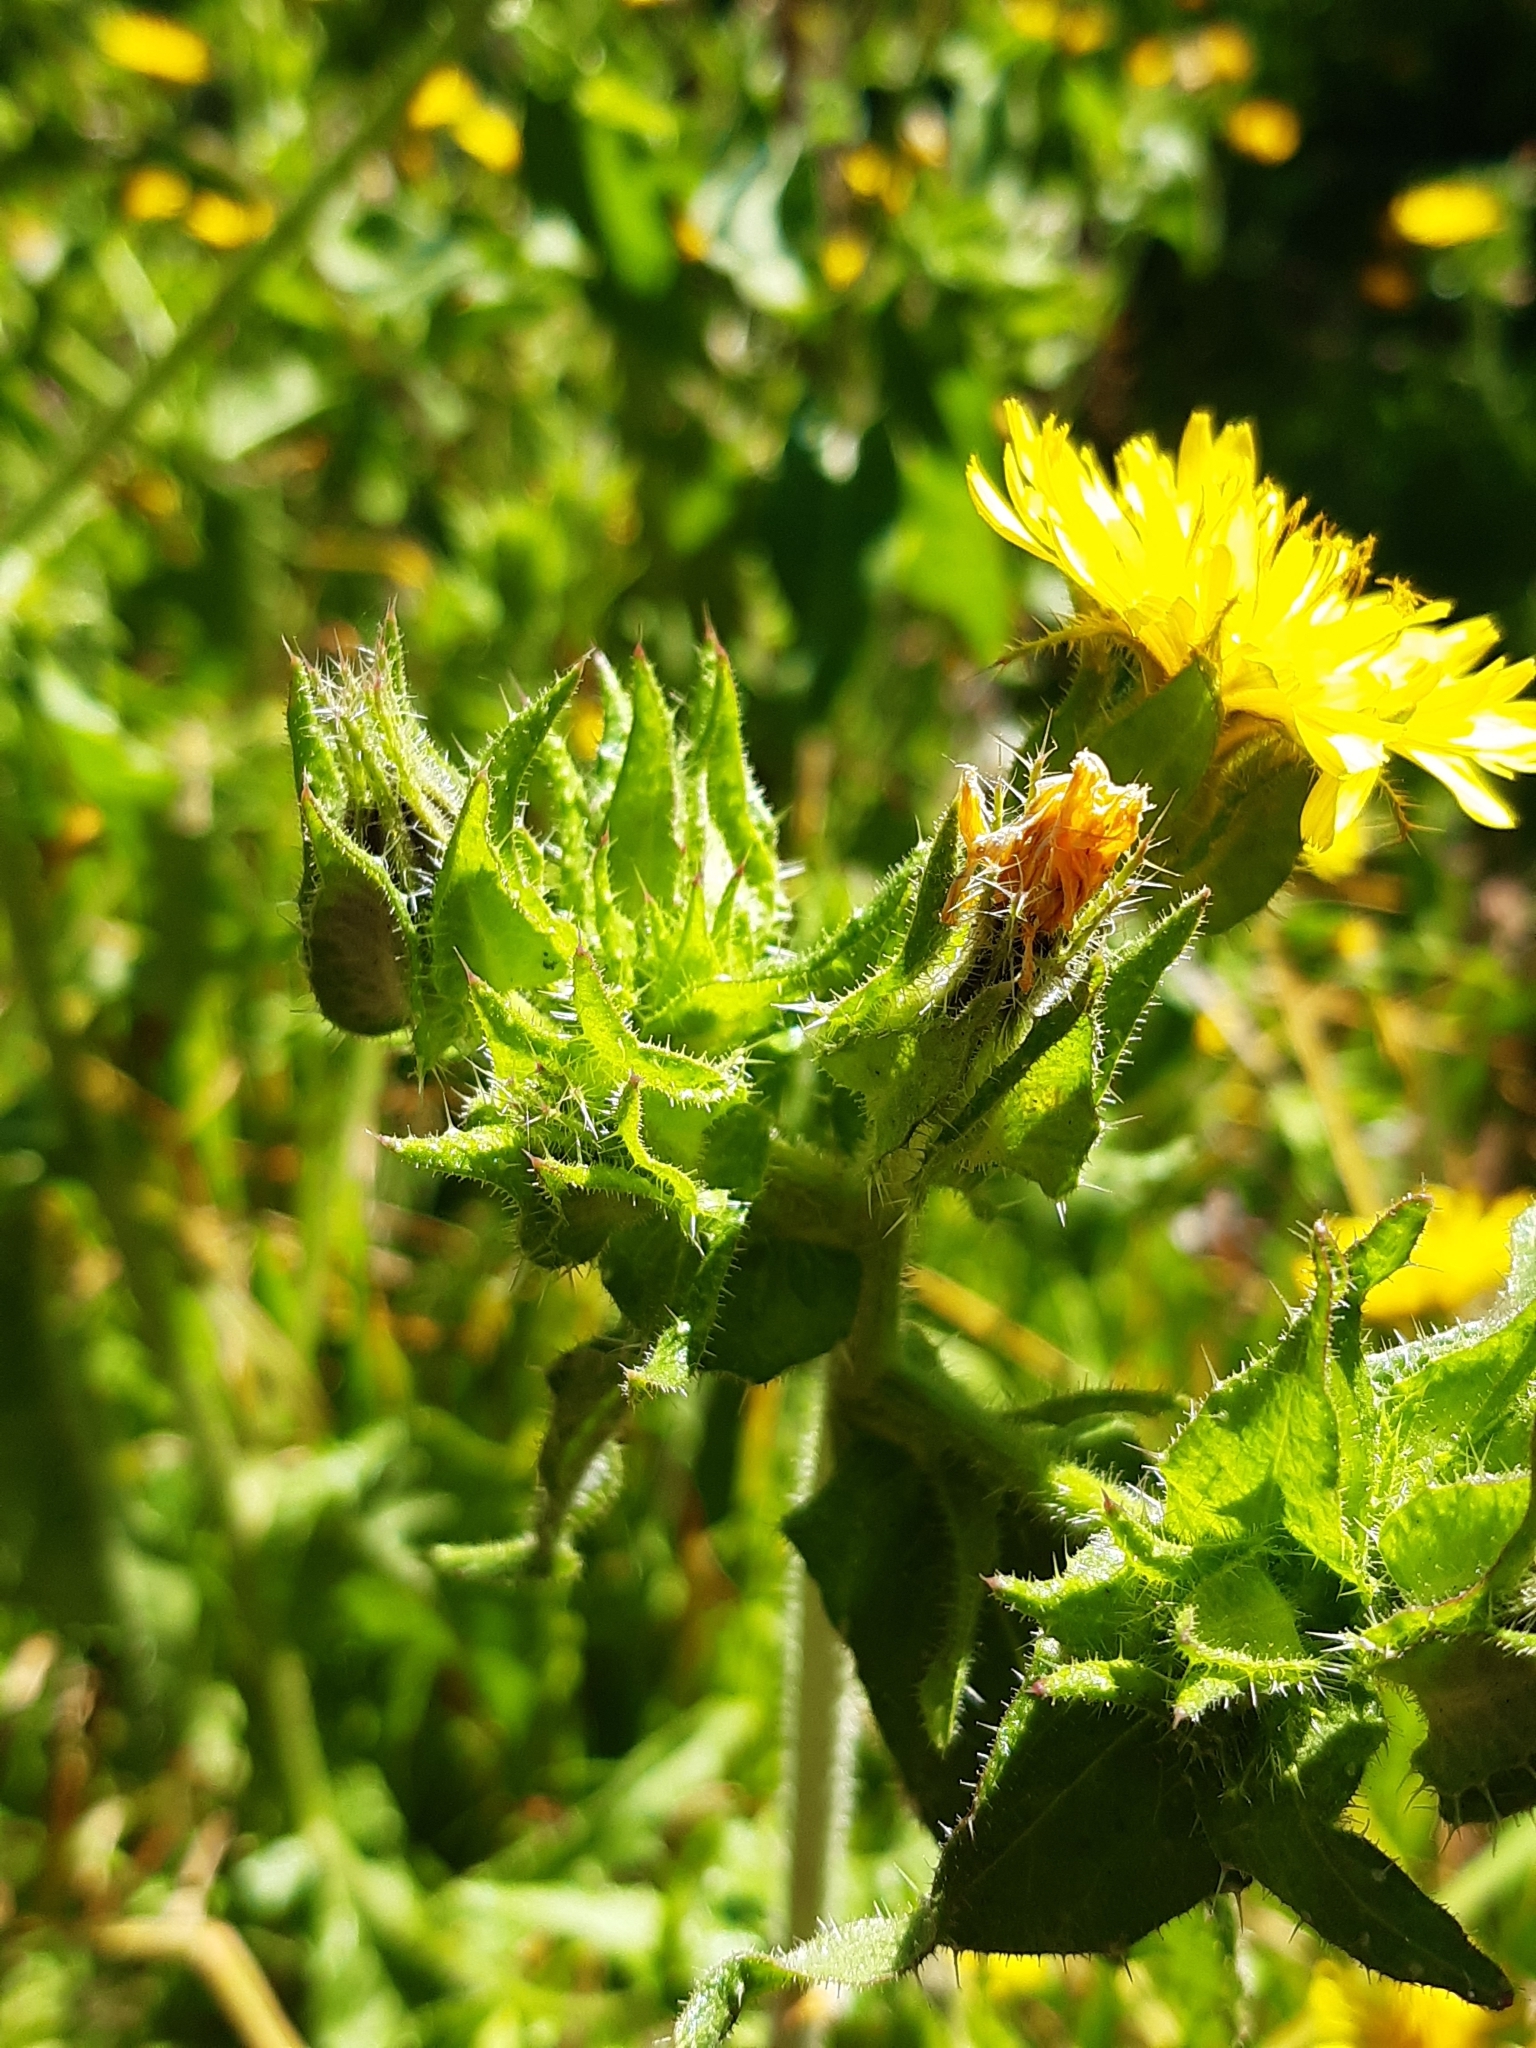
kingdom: Plantae
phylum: Tracheophyta
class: Magnoliopsida
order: Asterales
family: Asteraceae
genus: Helminthotheca
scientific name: Helminthotheca echioides
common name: Ox-tongue
